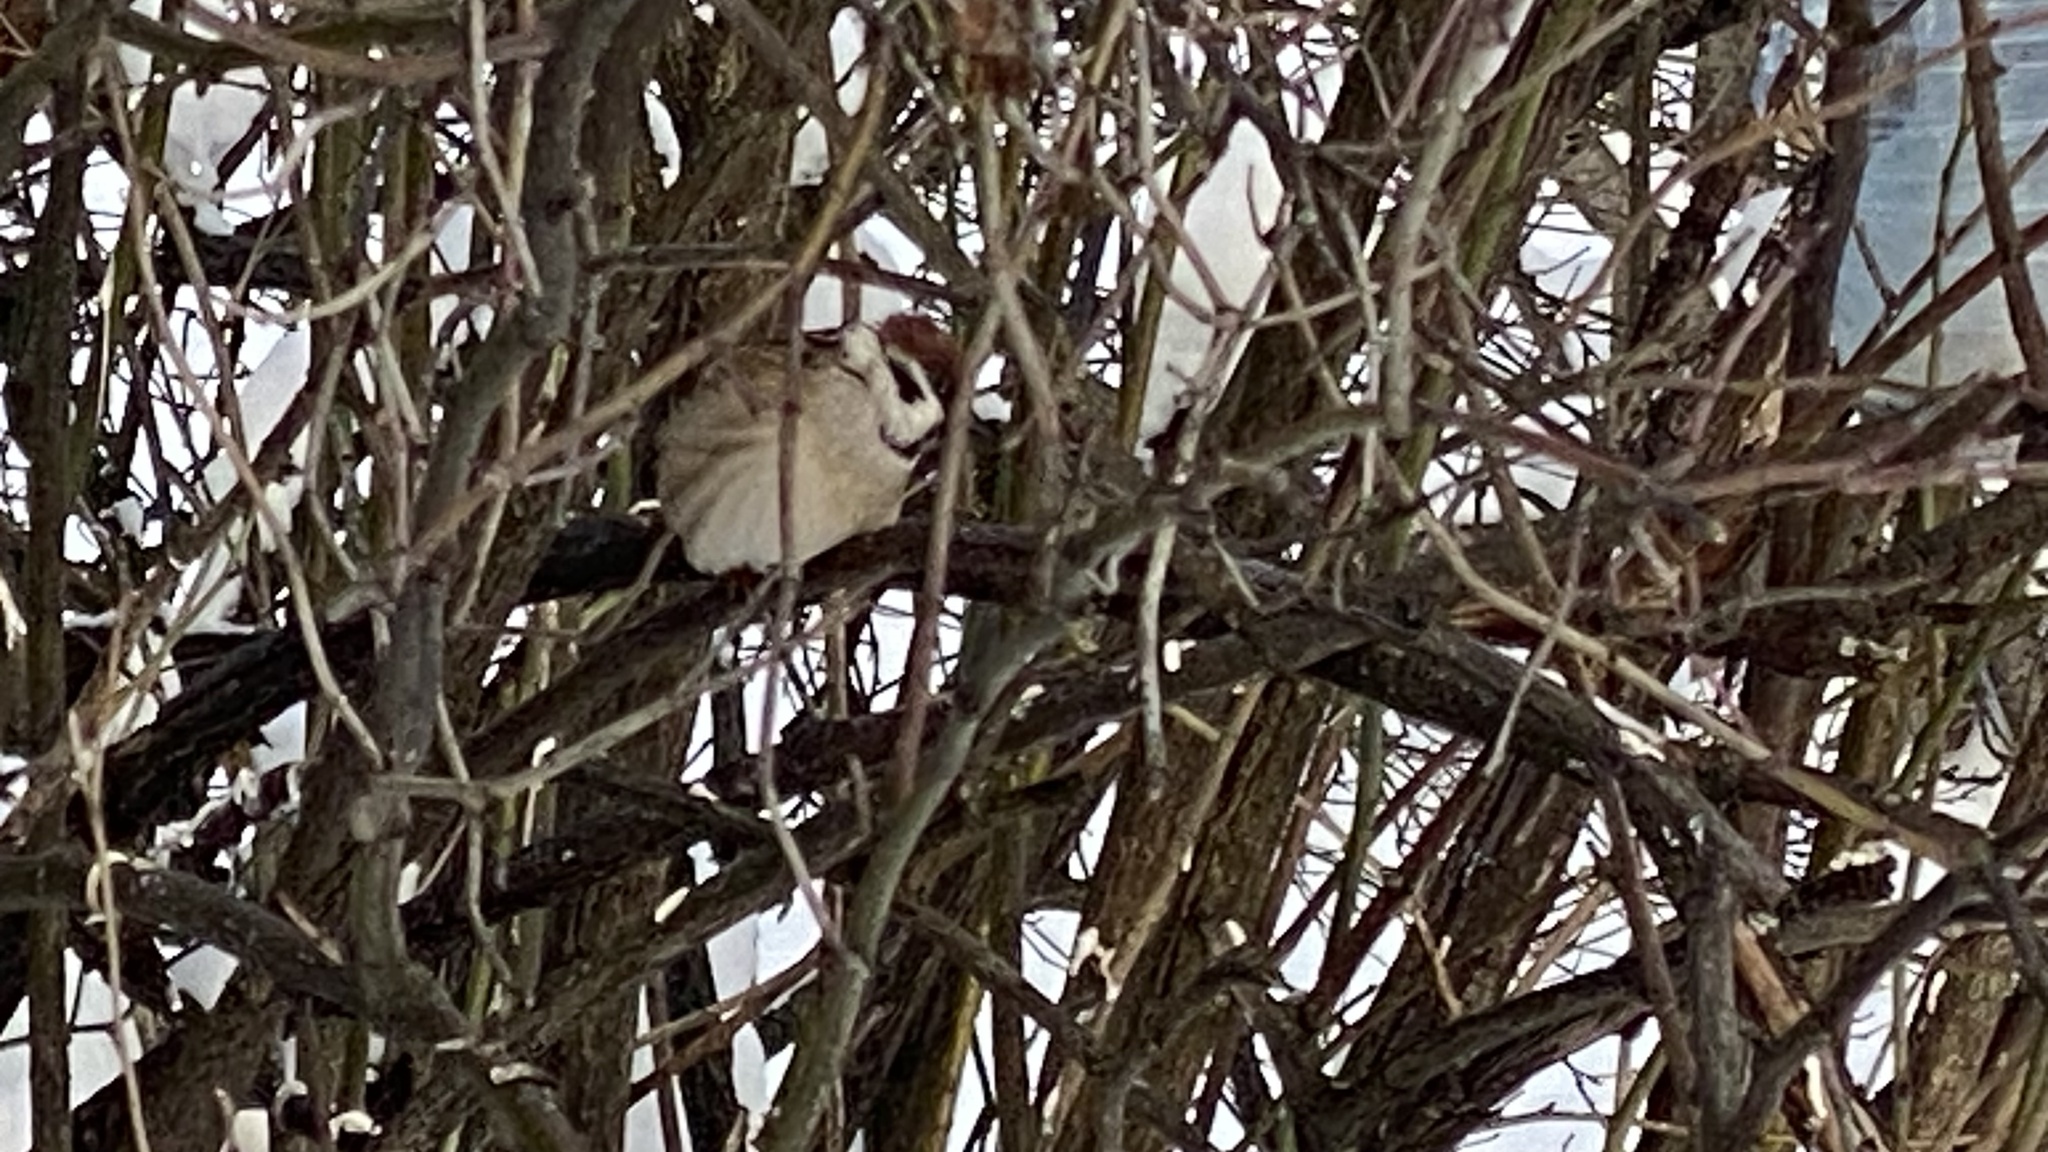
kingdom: Animalia
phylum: Chordata
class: Aves
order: Passeriformes
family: Passeridae
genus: Passer
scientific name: Passer domesticus
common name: House sparrow
